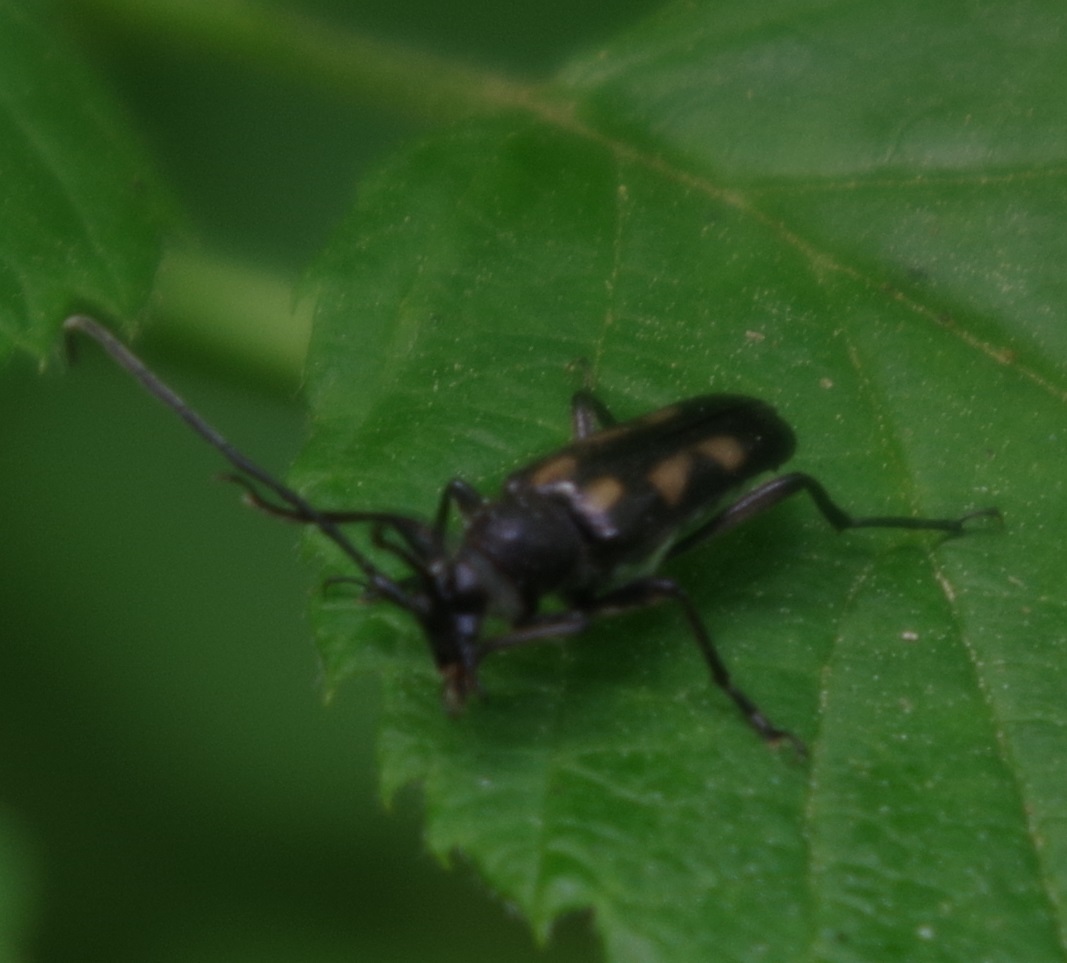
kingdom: Animalia
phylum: Arthropoda
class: Insecta
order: Coleoptera
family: Cerambycidae
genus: Anoplodera
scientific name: Anoplodera sexguttata
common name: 6 spotted longhorn
